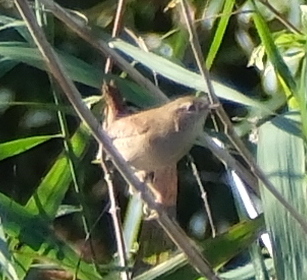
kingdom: Animalia
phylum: Chordata
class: Aves
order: Passeriformes
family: Troglodytidae
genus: Troglodytes
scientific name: Troglodytes troglodytes
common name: Eurasian wren
